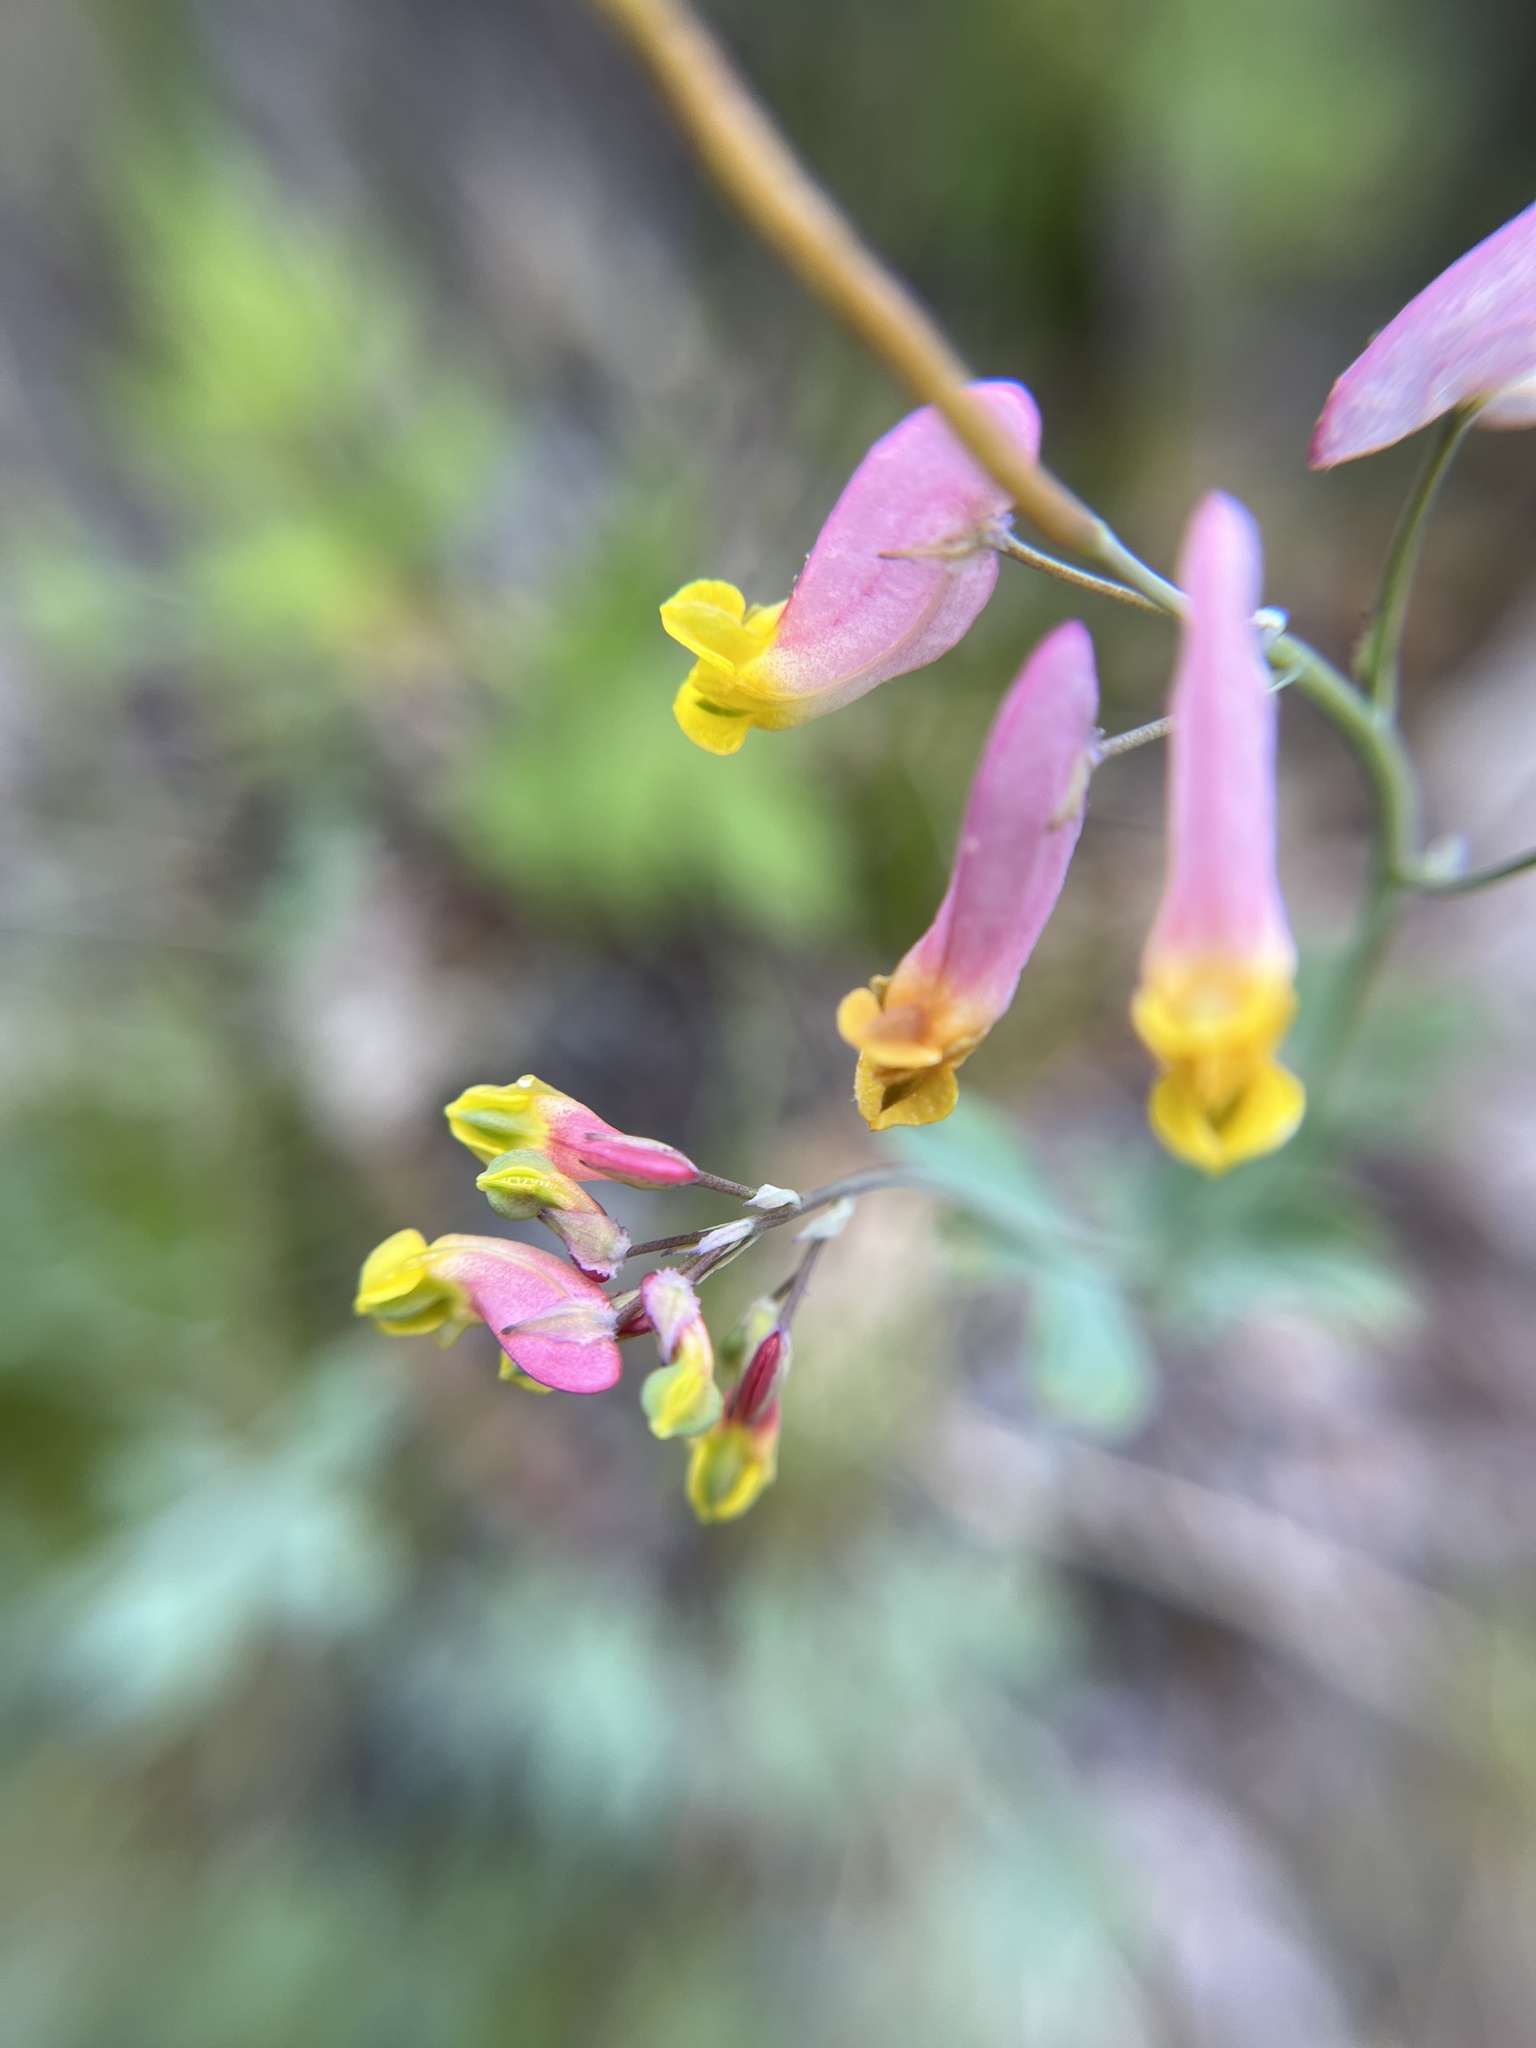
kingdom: Plantae
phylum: Tracheophyta
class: Magnoliopsida
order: Ranunculales
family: Papaveraceae
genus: Capnoides
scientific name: Capnoides sempervirens
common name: Rock harlequin
